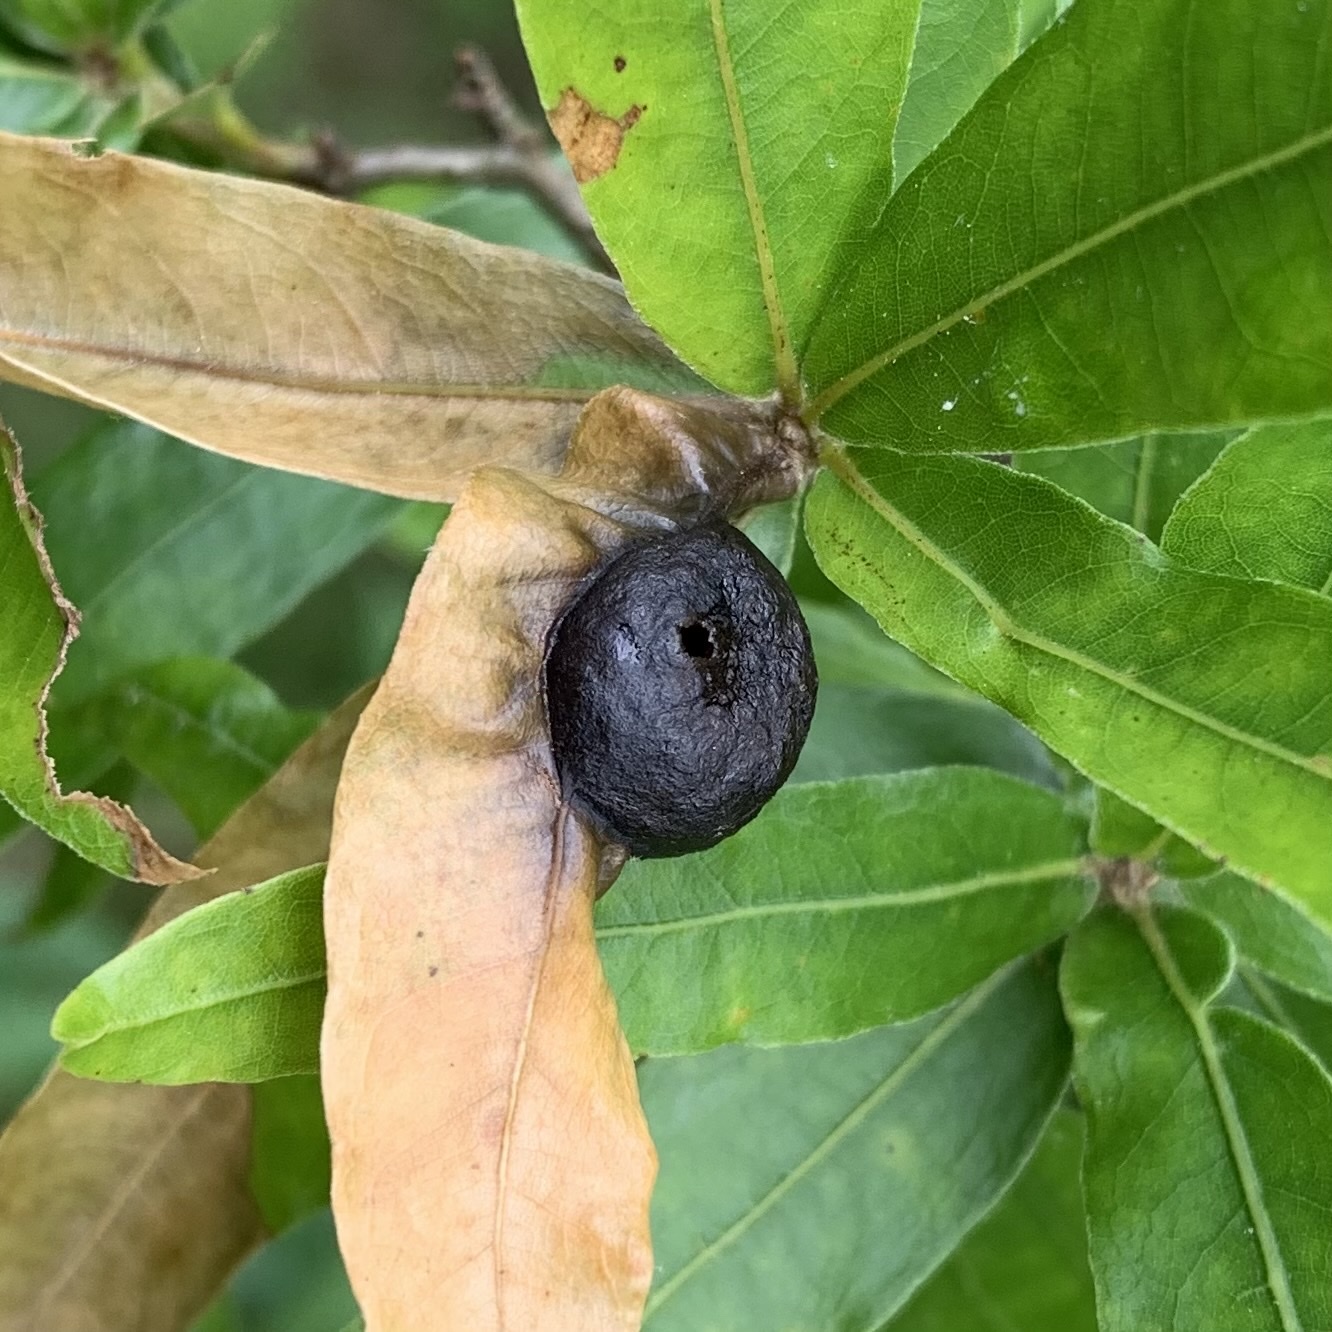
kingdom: Animalia
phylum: Arthropoda
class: Insecta
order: Hymenoptera
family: Cynipidae
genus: Dryocosmus
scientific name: Dryocosmus
